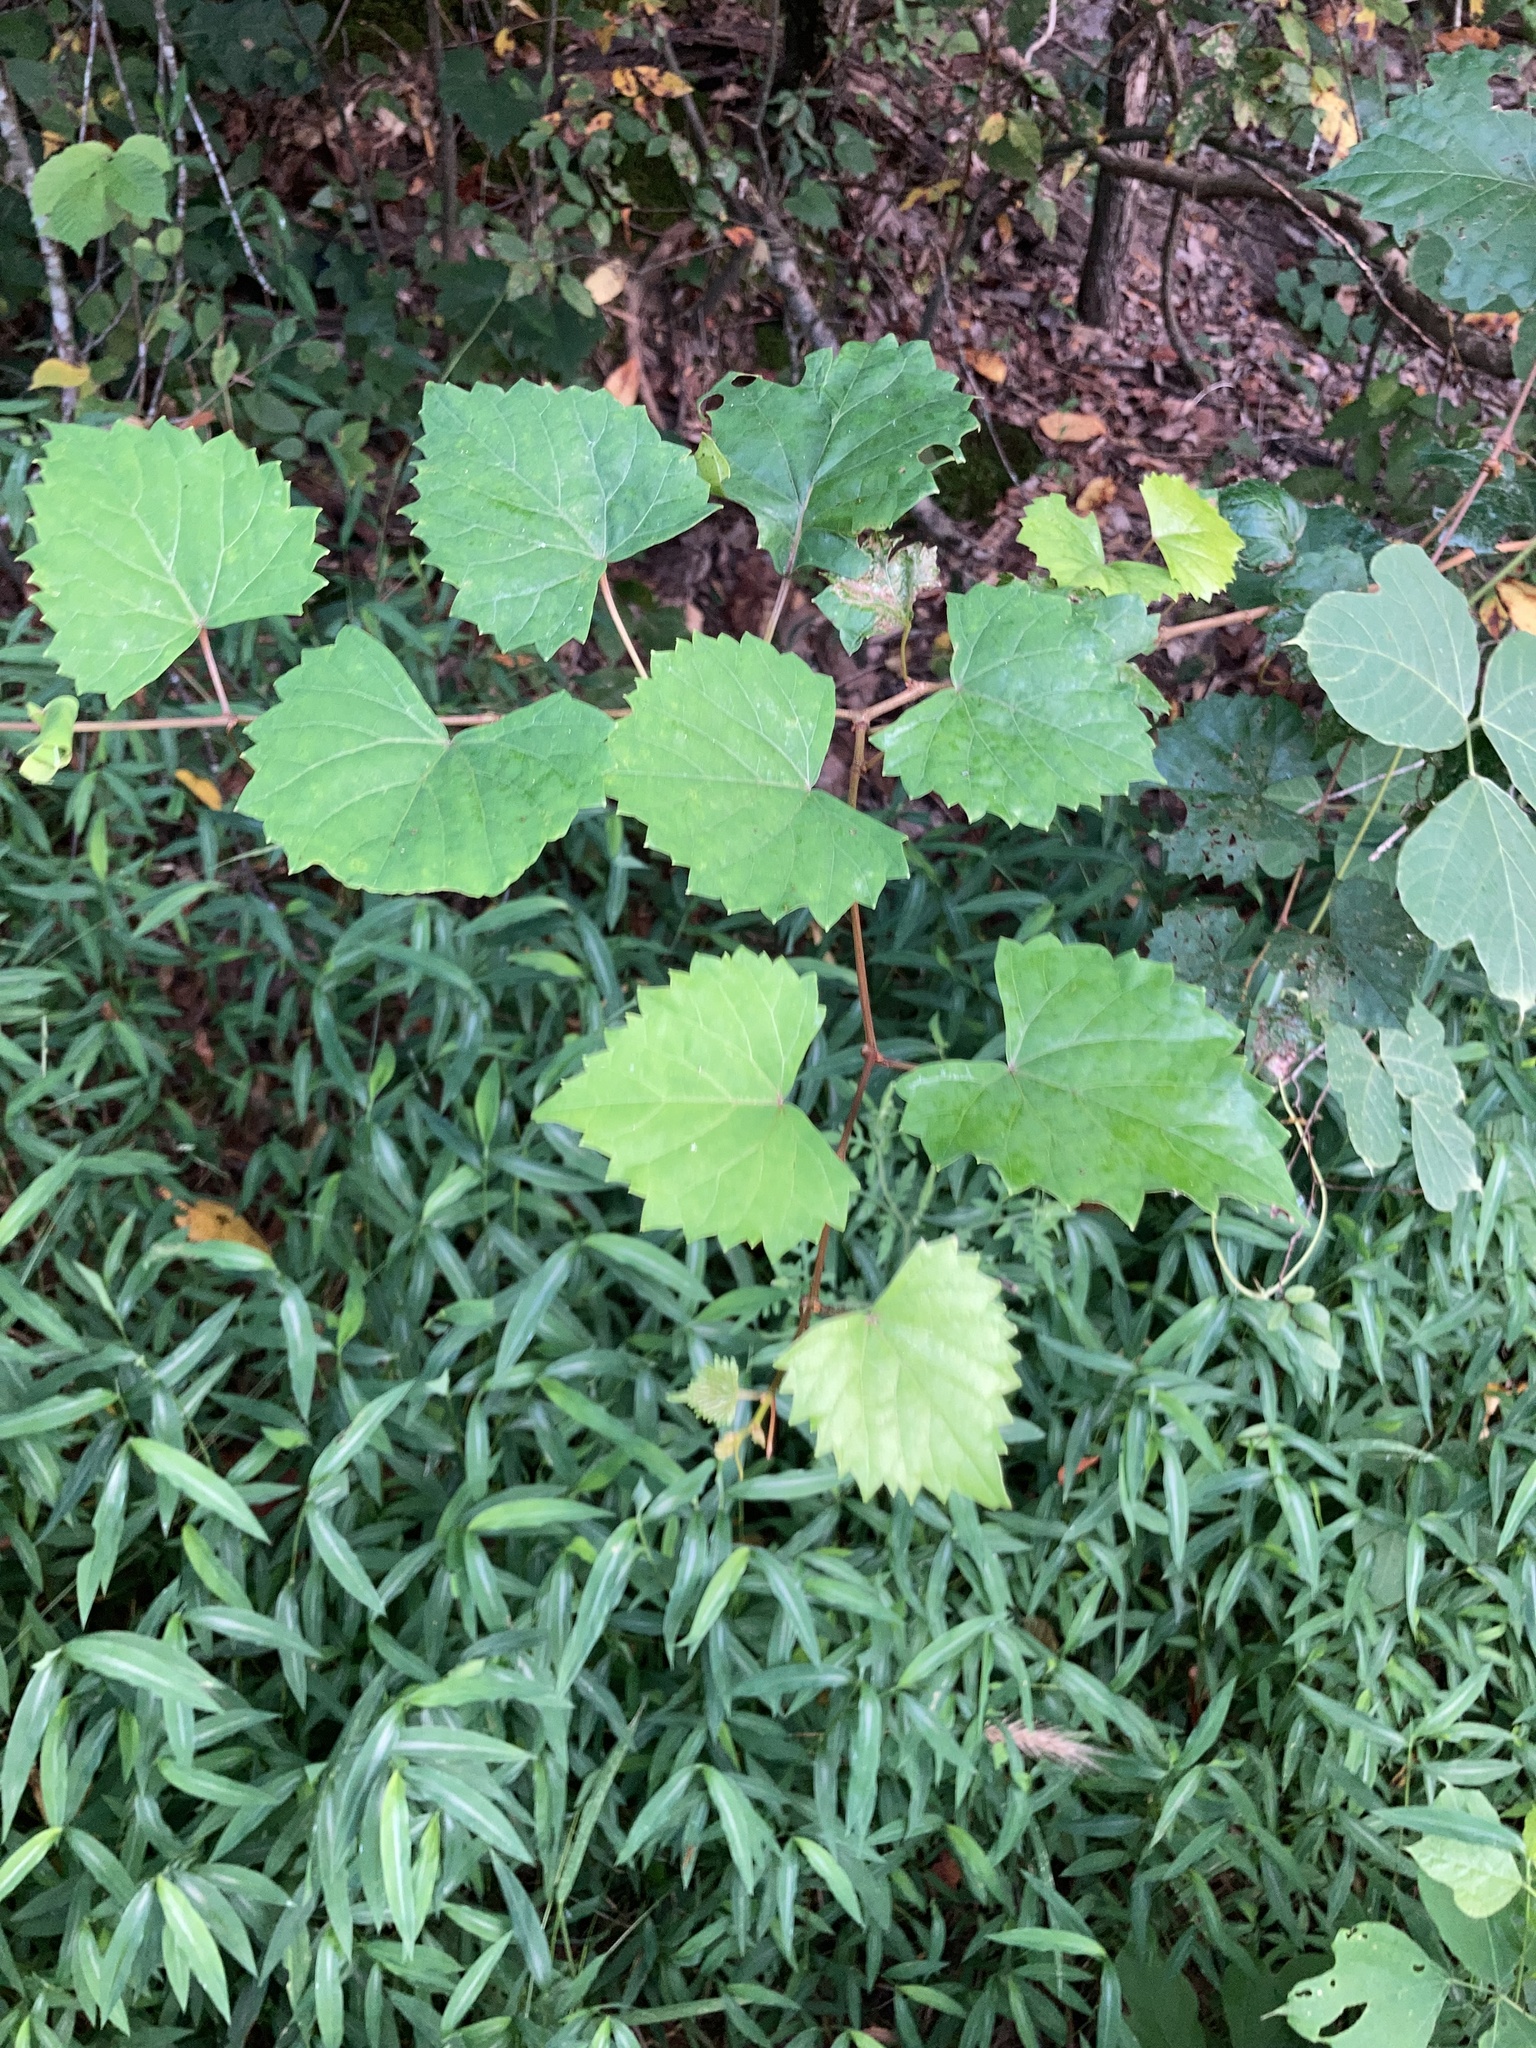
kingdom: Plantae
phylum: Tracheophyta
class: Magnoliopsida
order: Vitales
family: Vitaceae
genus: Vitis
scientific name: Vitis rotundifolia
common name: Muscadine grape
